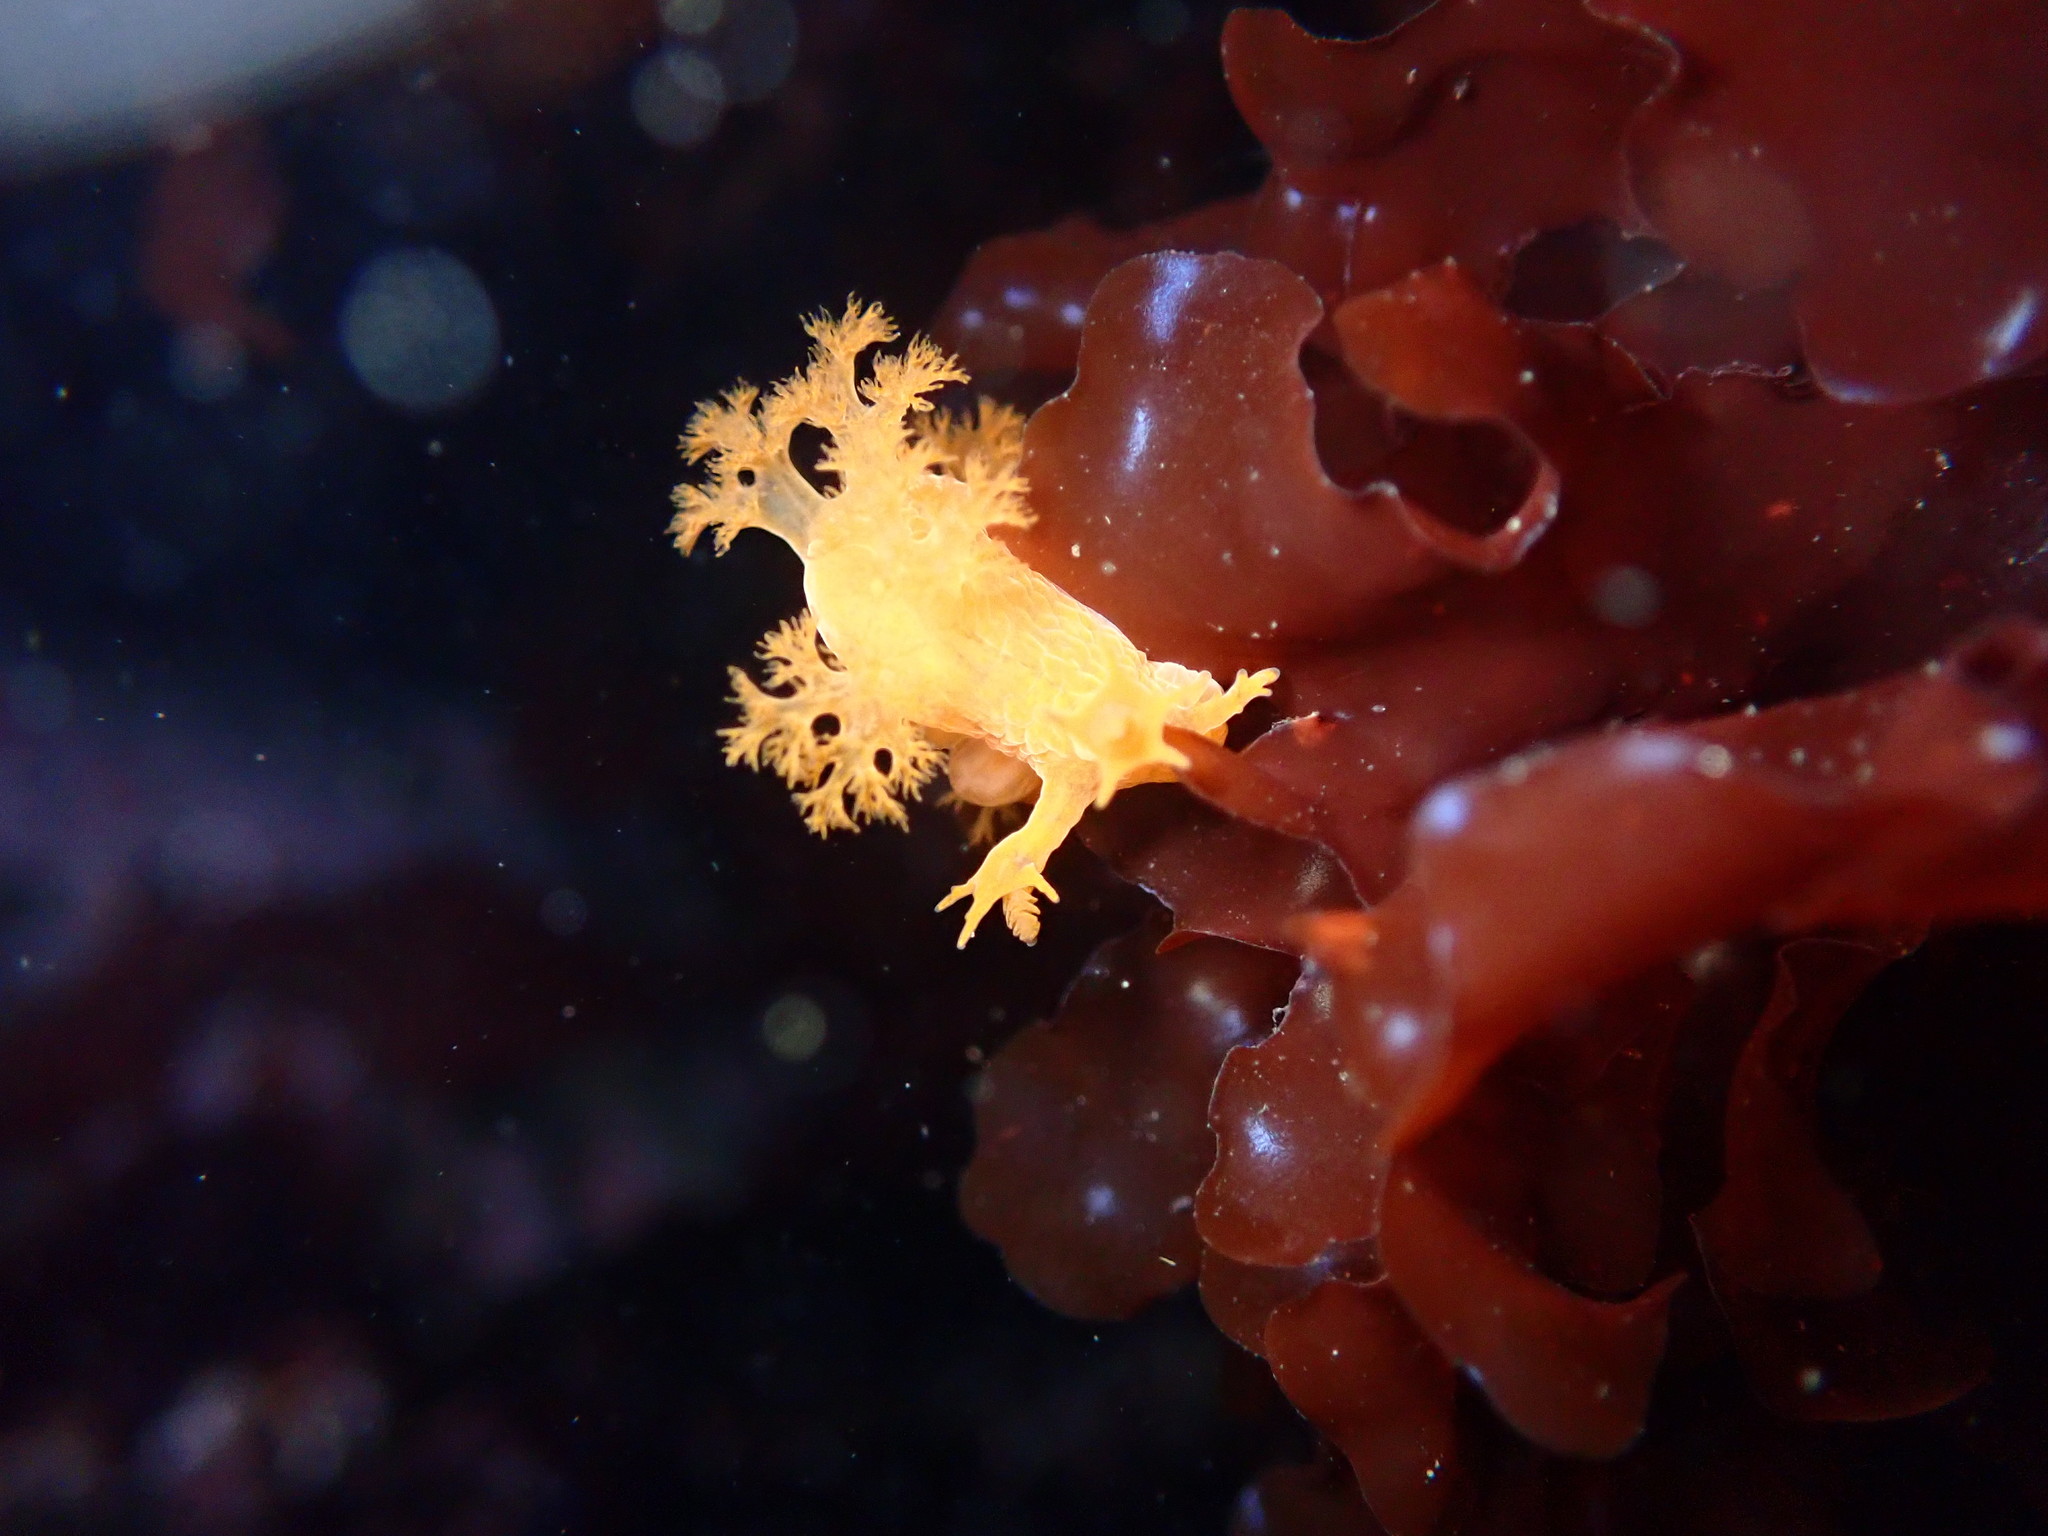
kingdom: Animalia
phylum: Mollusca
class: Gastropoda
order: Nudibranchia
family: Dendronotidae
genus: Dendronotus
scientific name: Dendronotus subramosus
